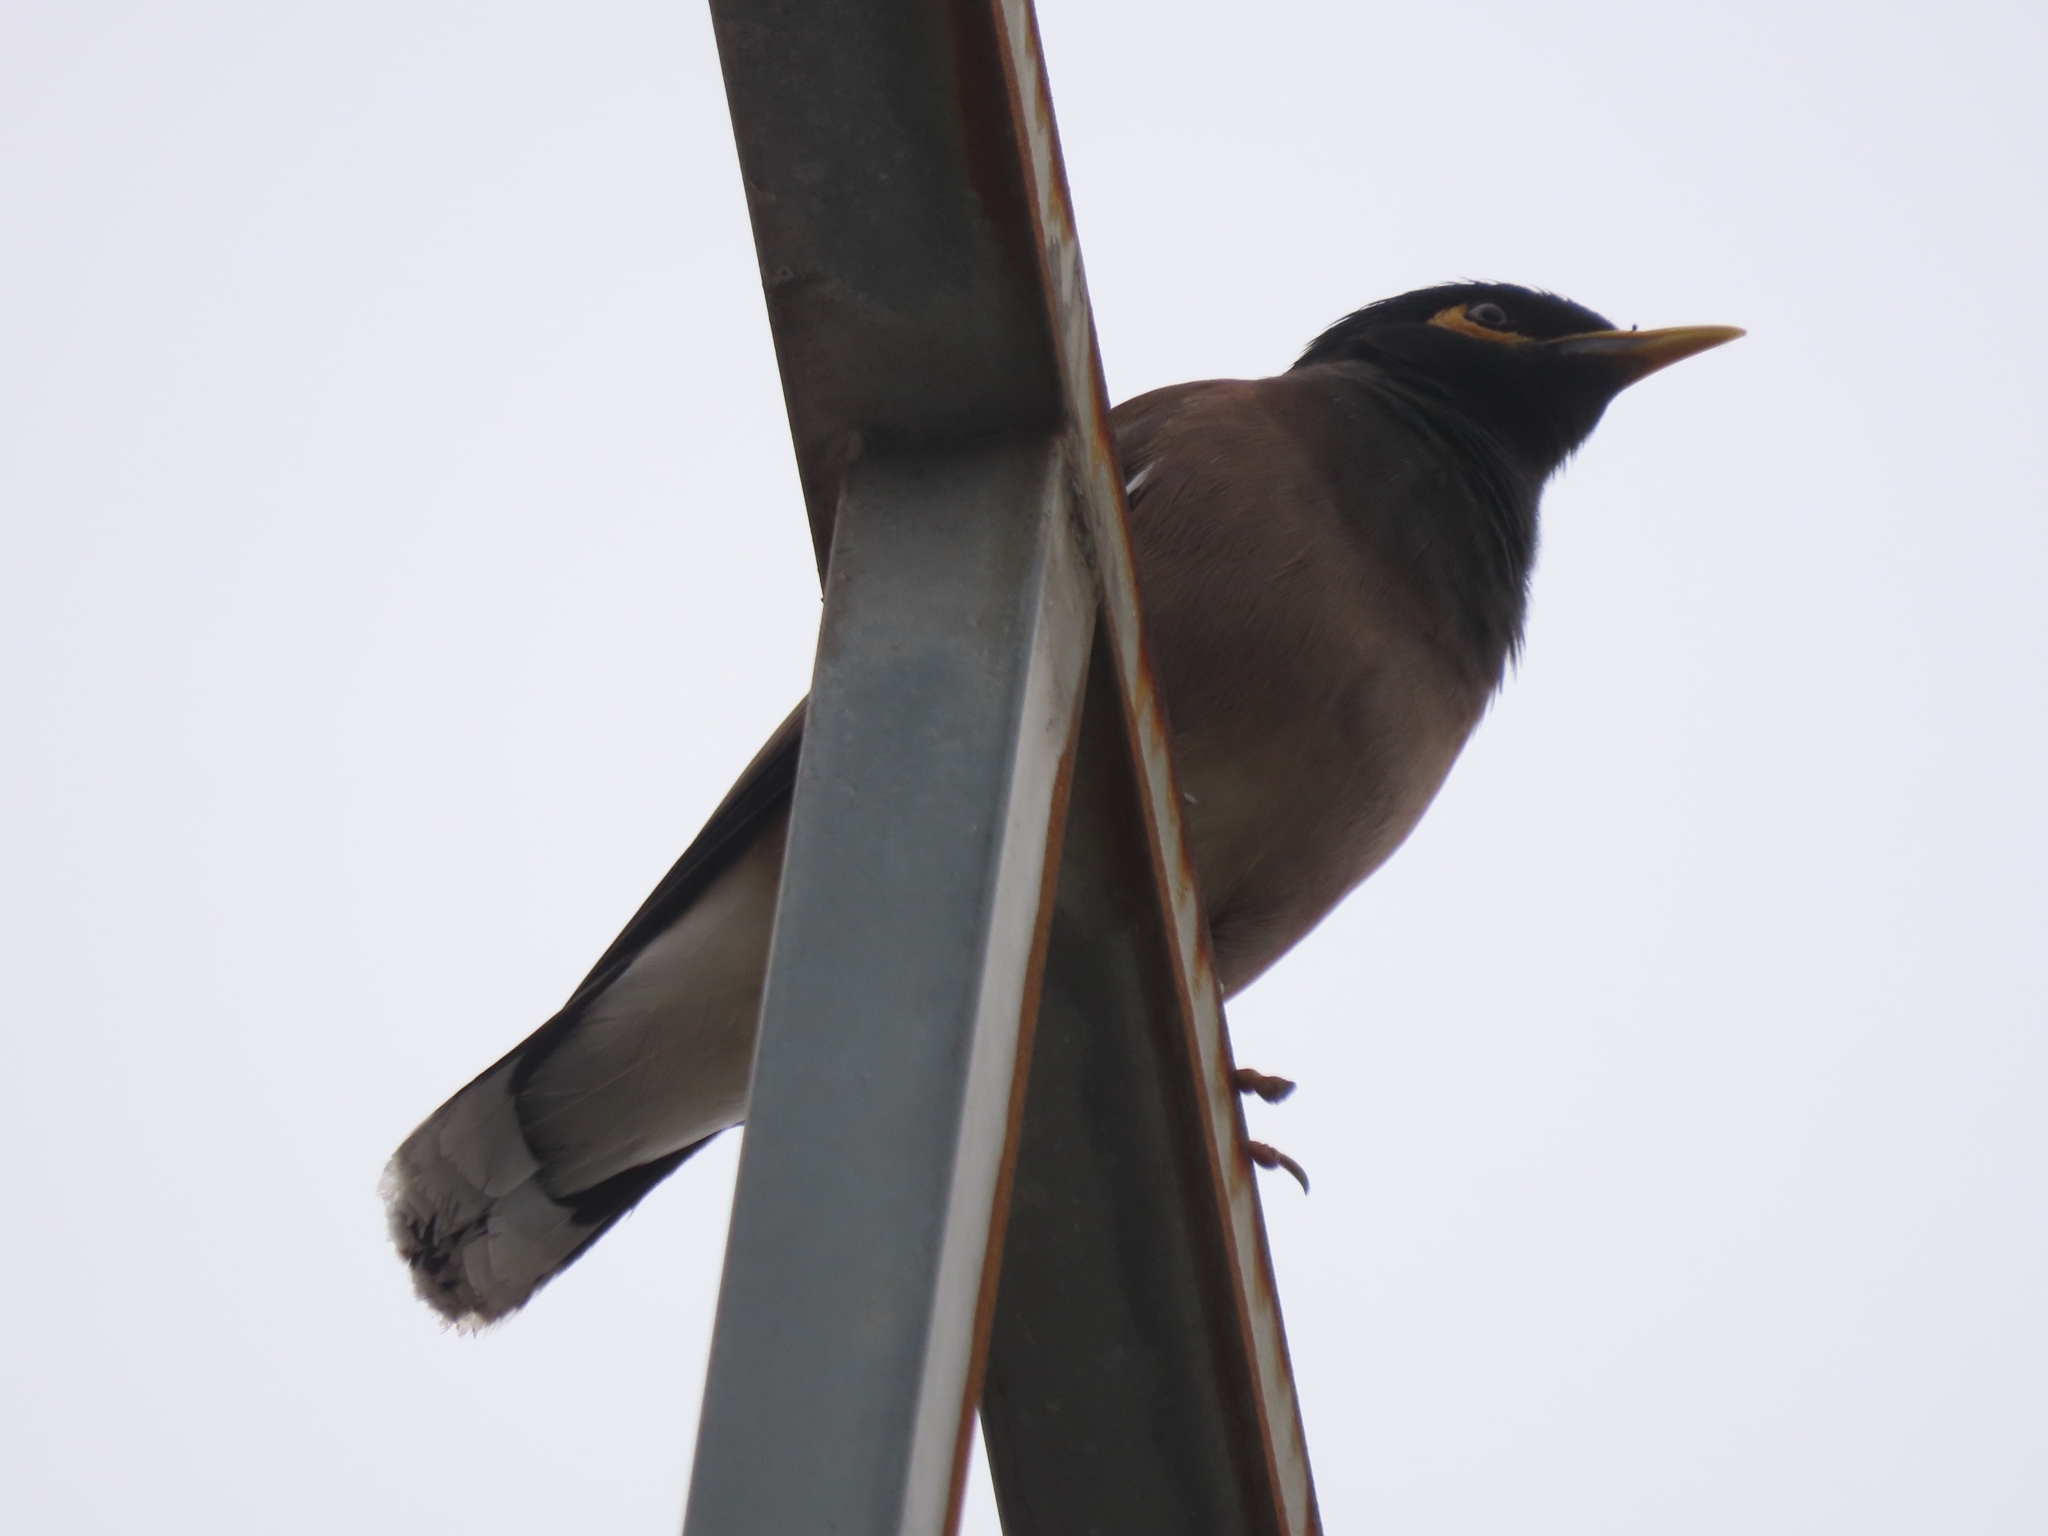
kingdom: Animalia
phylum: Chordata
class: Aves
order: Passeriformes
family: Sturnidae
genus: Acridotheres
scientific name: Acridotheres tristis
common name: Common myna
